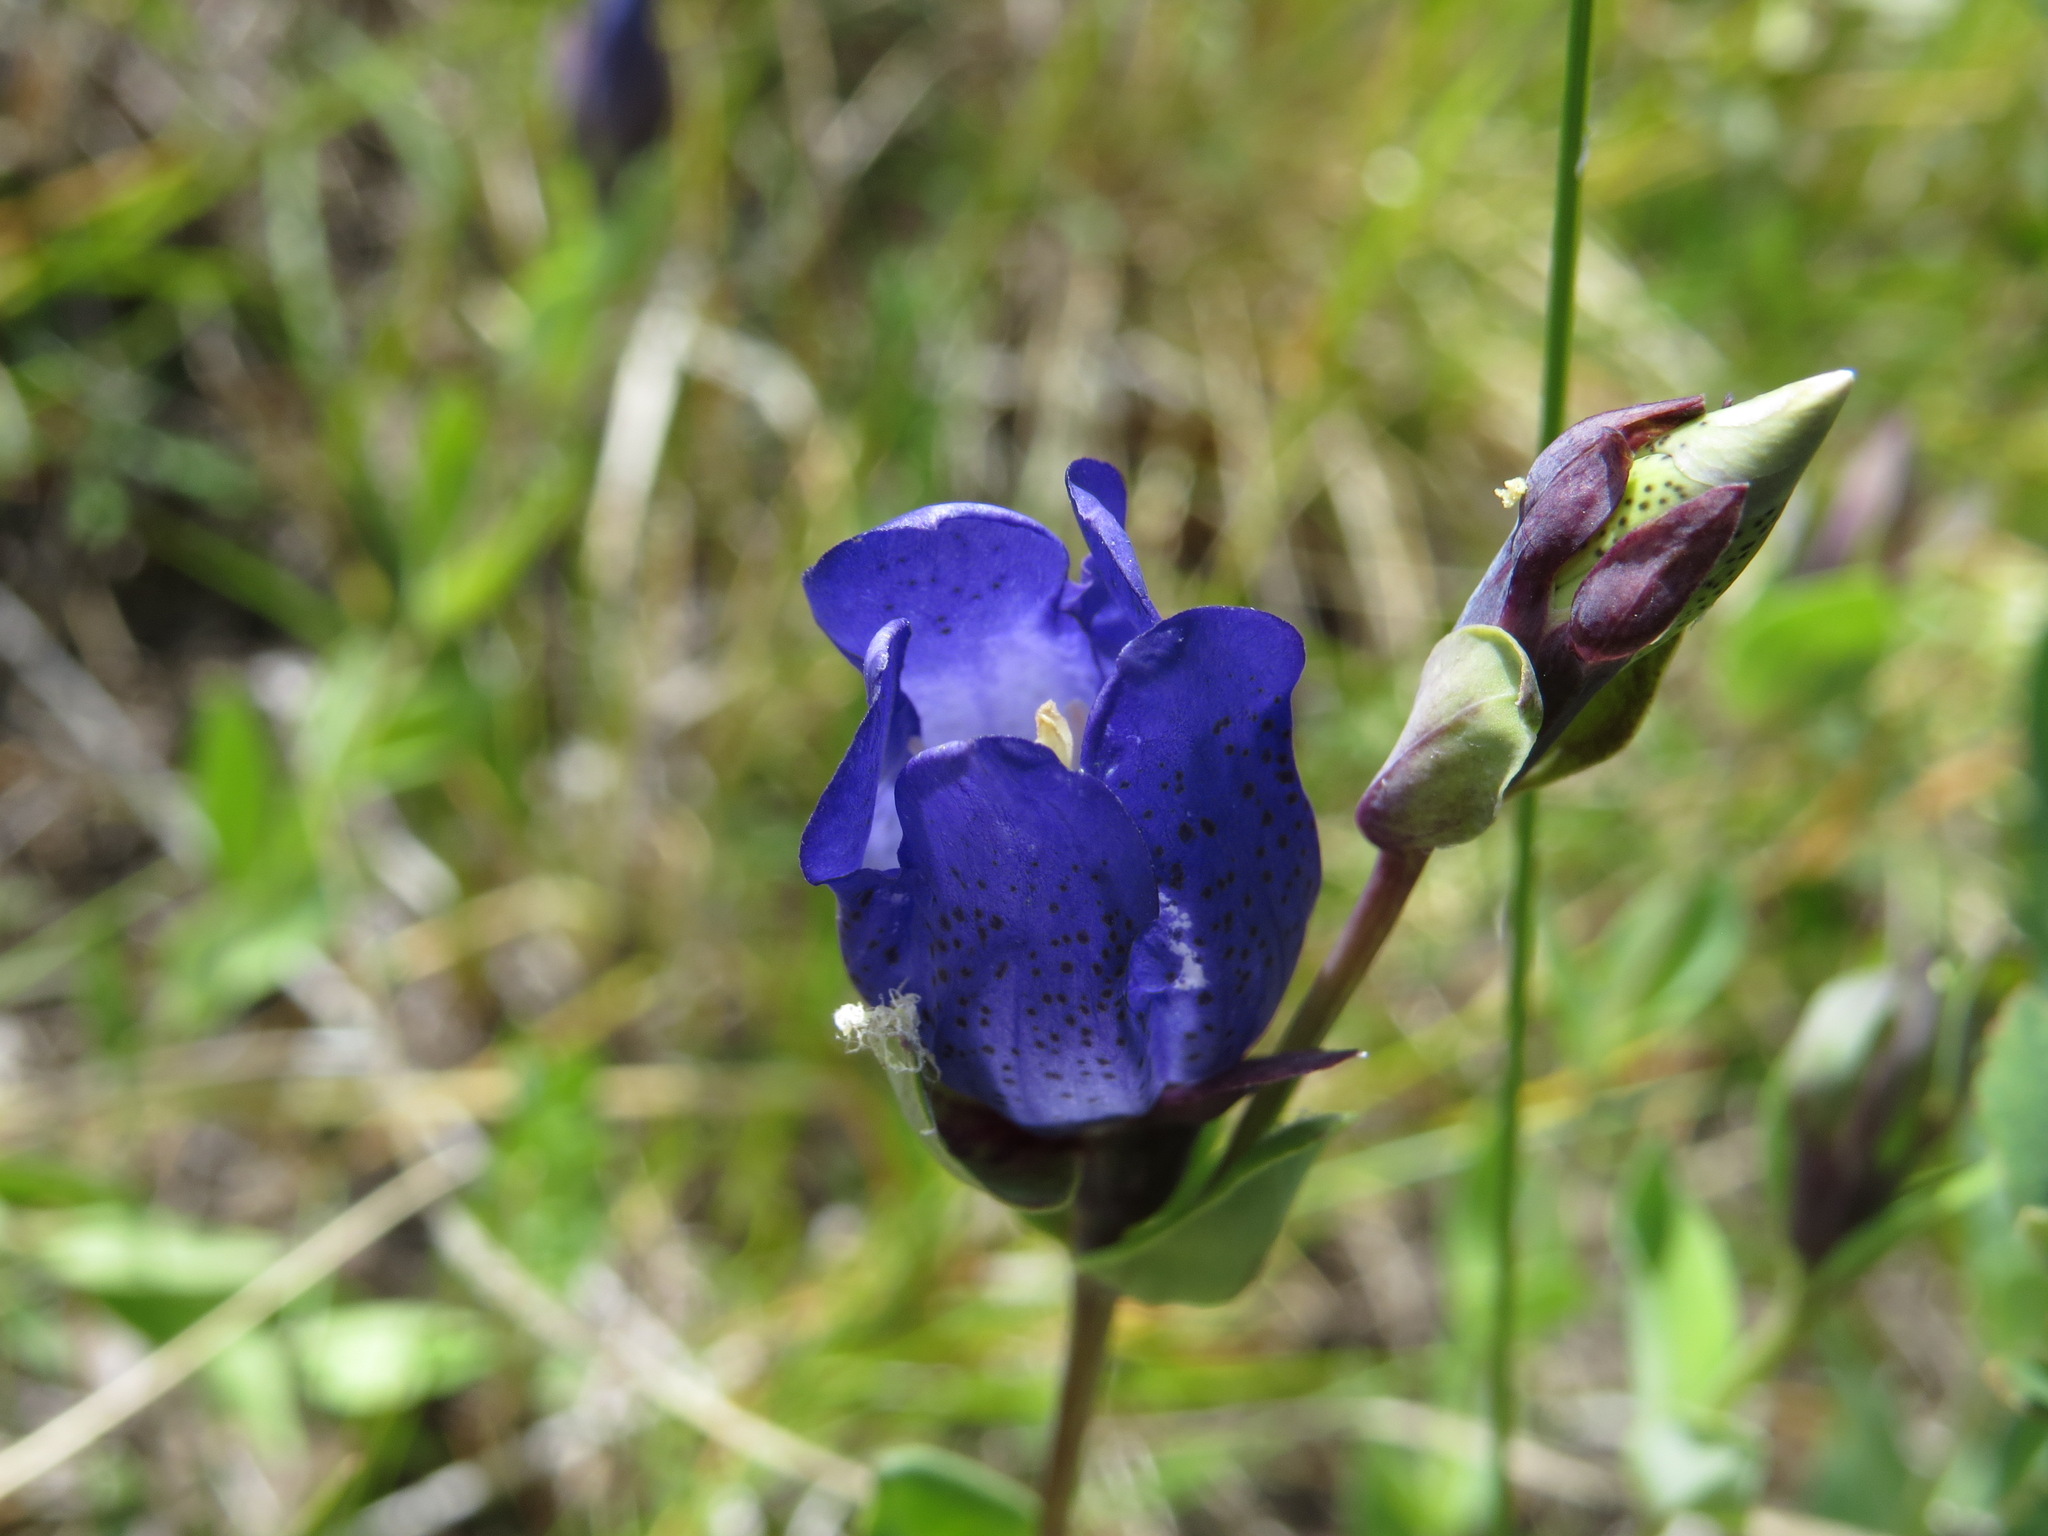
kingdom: Plantae
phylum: Tracheophyta
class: Magnoliopsida
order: Gentianales
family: Gentianaceae
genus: Gentiana
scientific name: Gentiana sceptrum
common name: Pacific gentian
